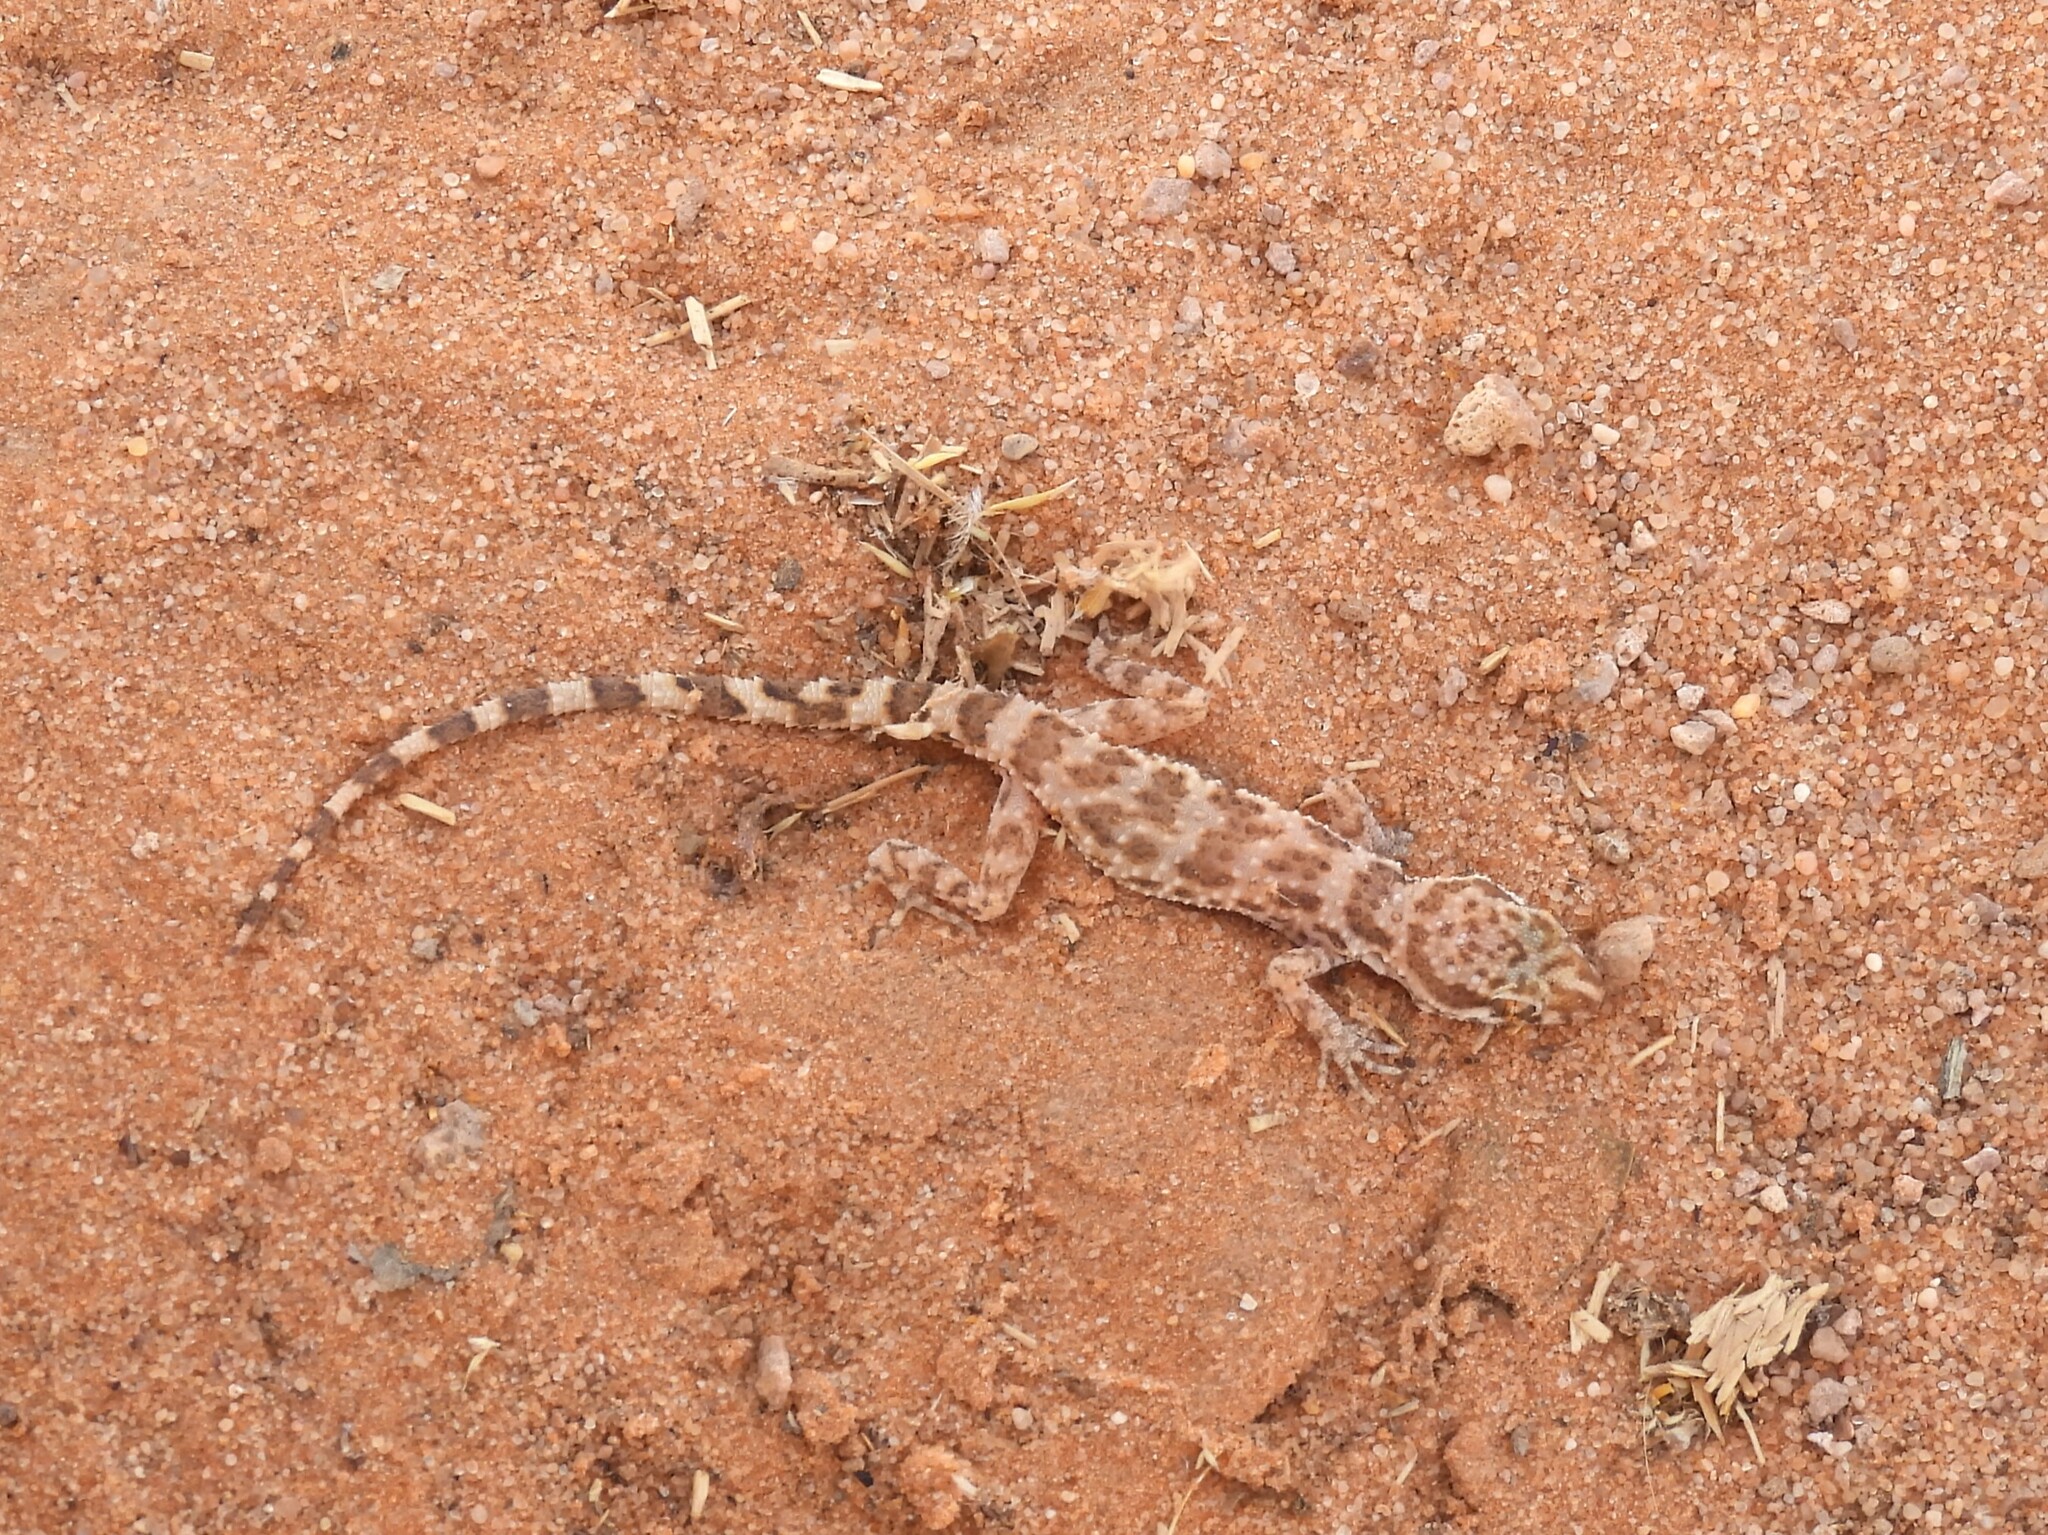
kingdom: Animalia
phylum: Chordata
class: Squamata
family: Gekkonidae
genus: Bunopus
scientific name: Bunopus tuberculatus
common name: Southern tuberculated gecko
